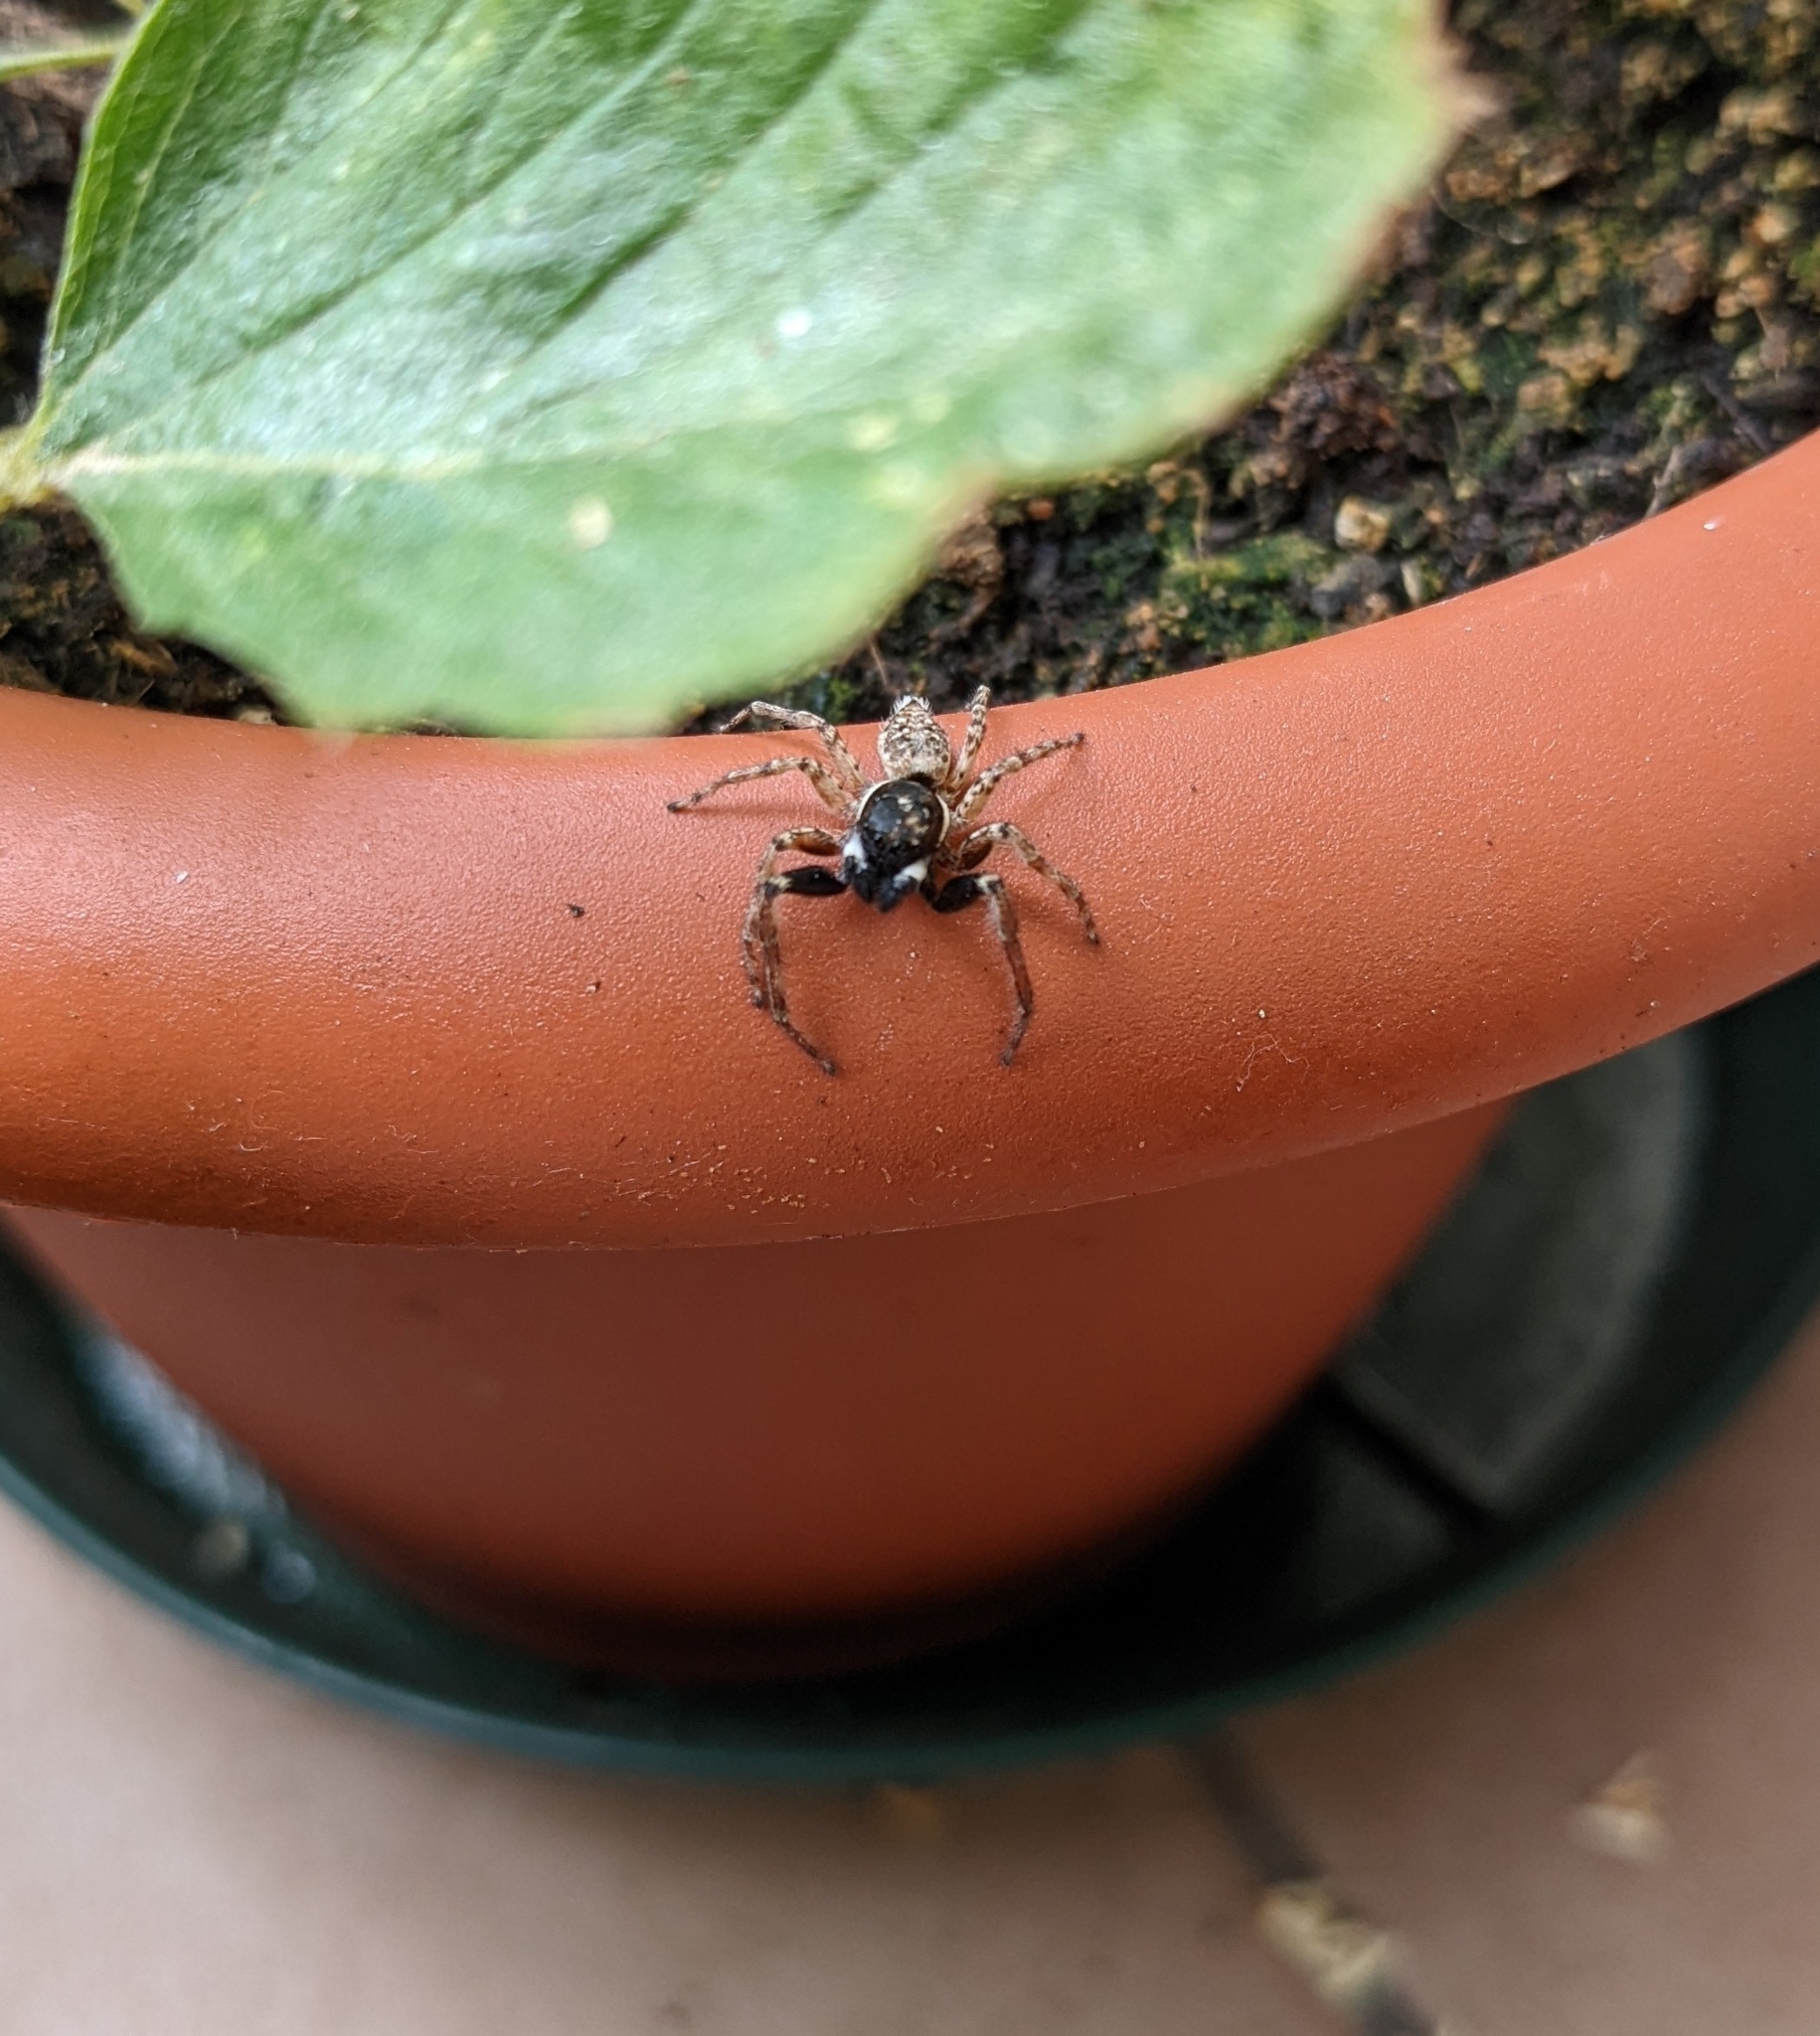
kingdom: Animalia
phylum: Arthropoda
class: Arachnida
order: Araneae
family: Salticidae
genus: Menemerus
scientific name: Menemerus semilimbatus
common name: Jumping spider
